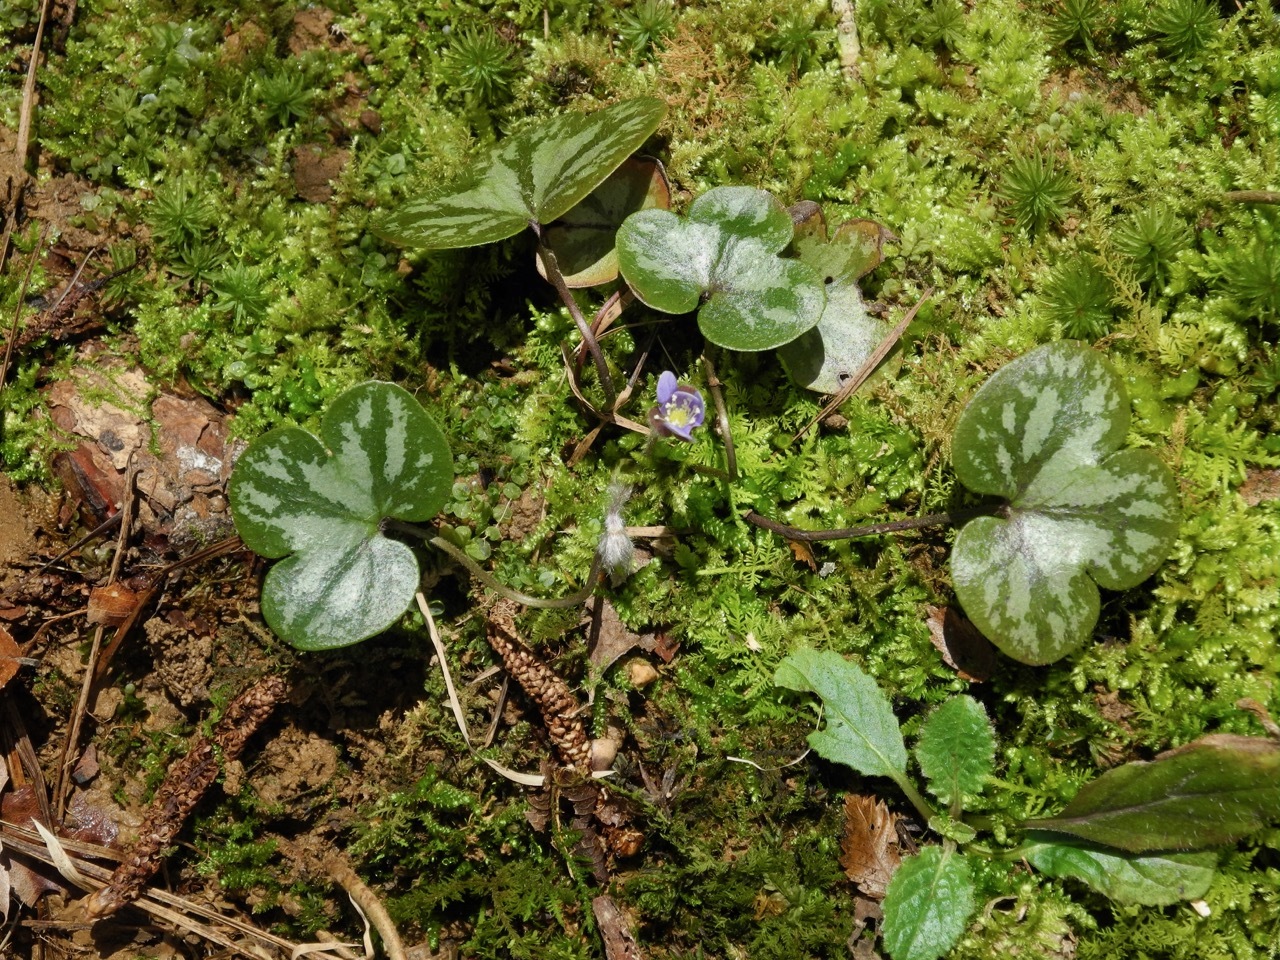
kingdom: Plantae
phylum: Tracheophyta
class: Magnoliopsida
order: Ranunculales
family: Ranunculaceae
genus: Hepatica
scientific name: Hepatica americana
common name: American hepatica
